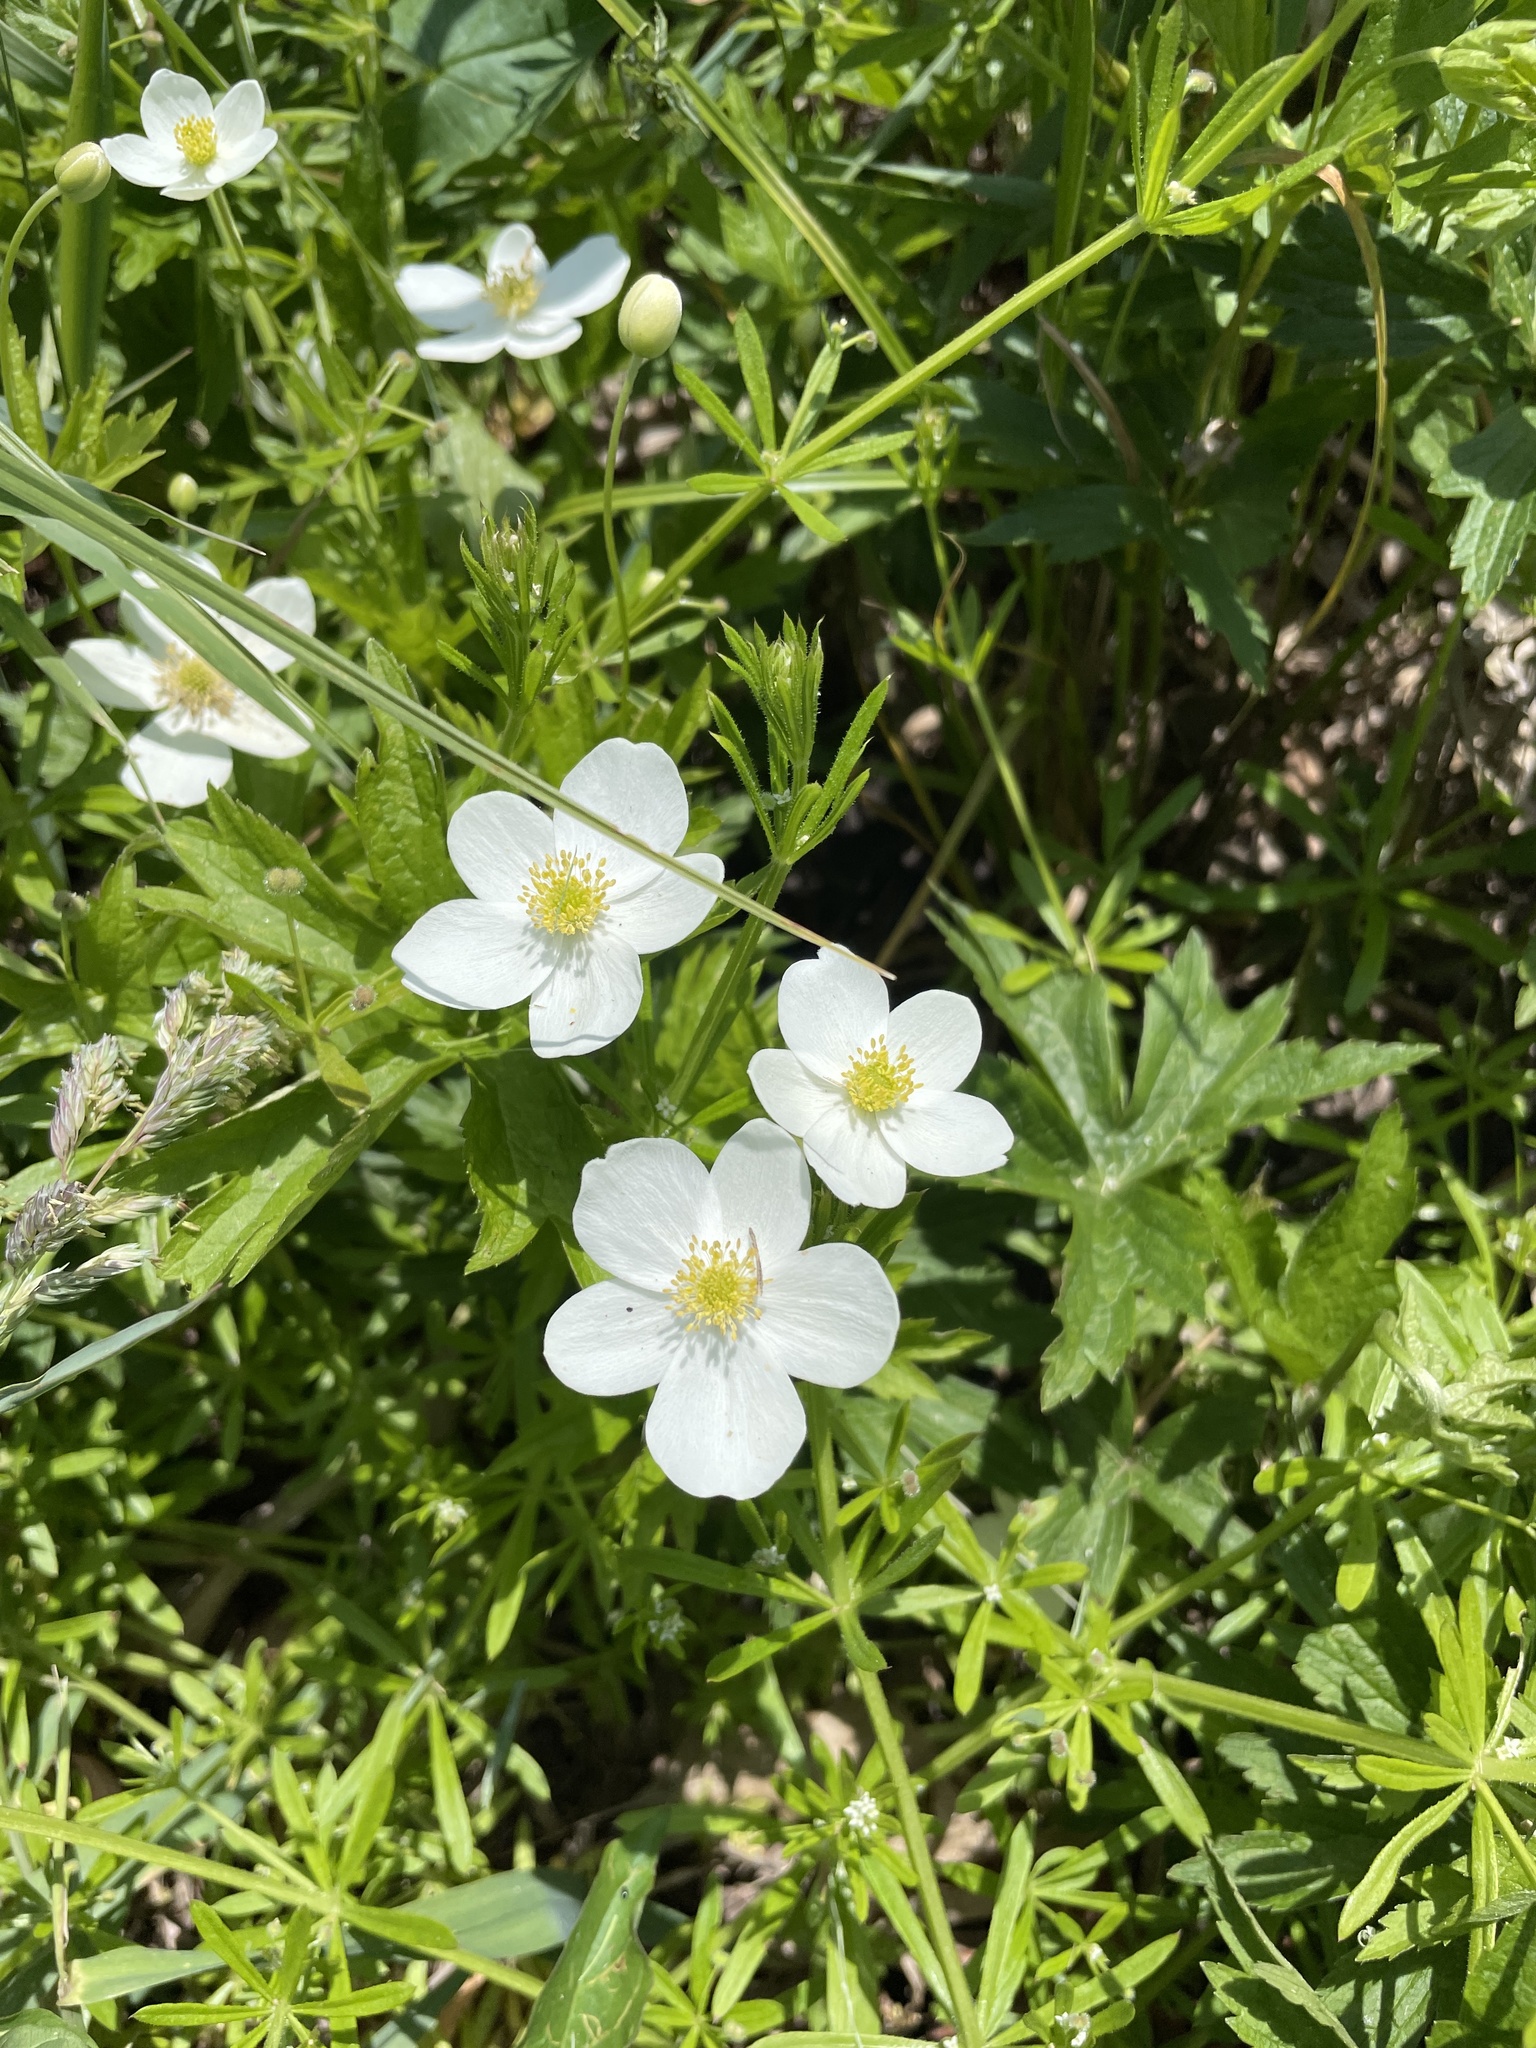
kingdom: Plantae
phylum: Tracheophyta
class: Magnoliopsida
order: Ranunculales
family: Ranunculaceae
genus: Anemonastrum
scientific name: Anemonastrum canadense
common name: Canada anemone
